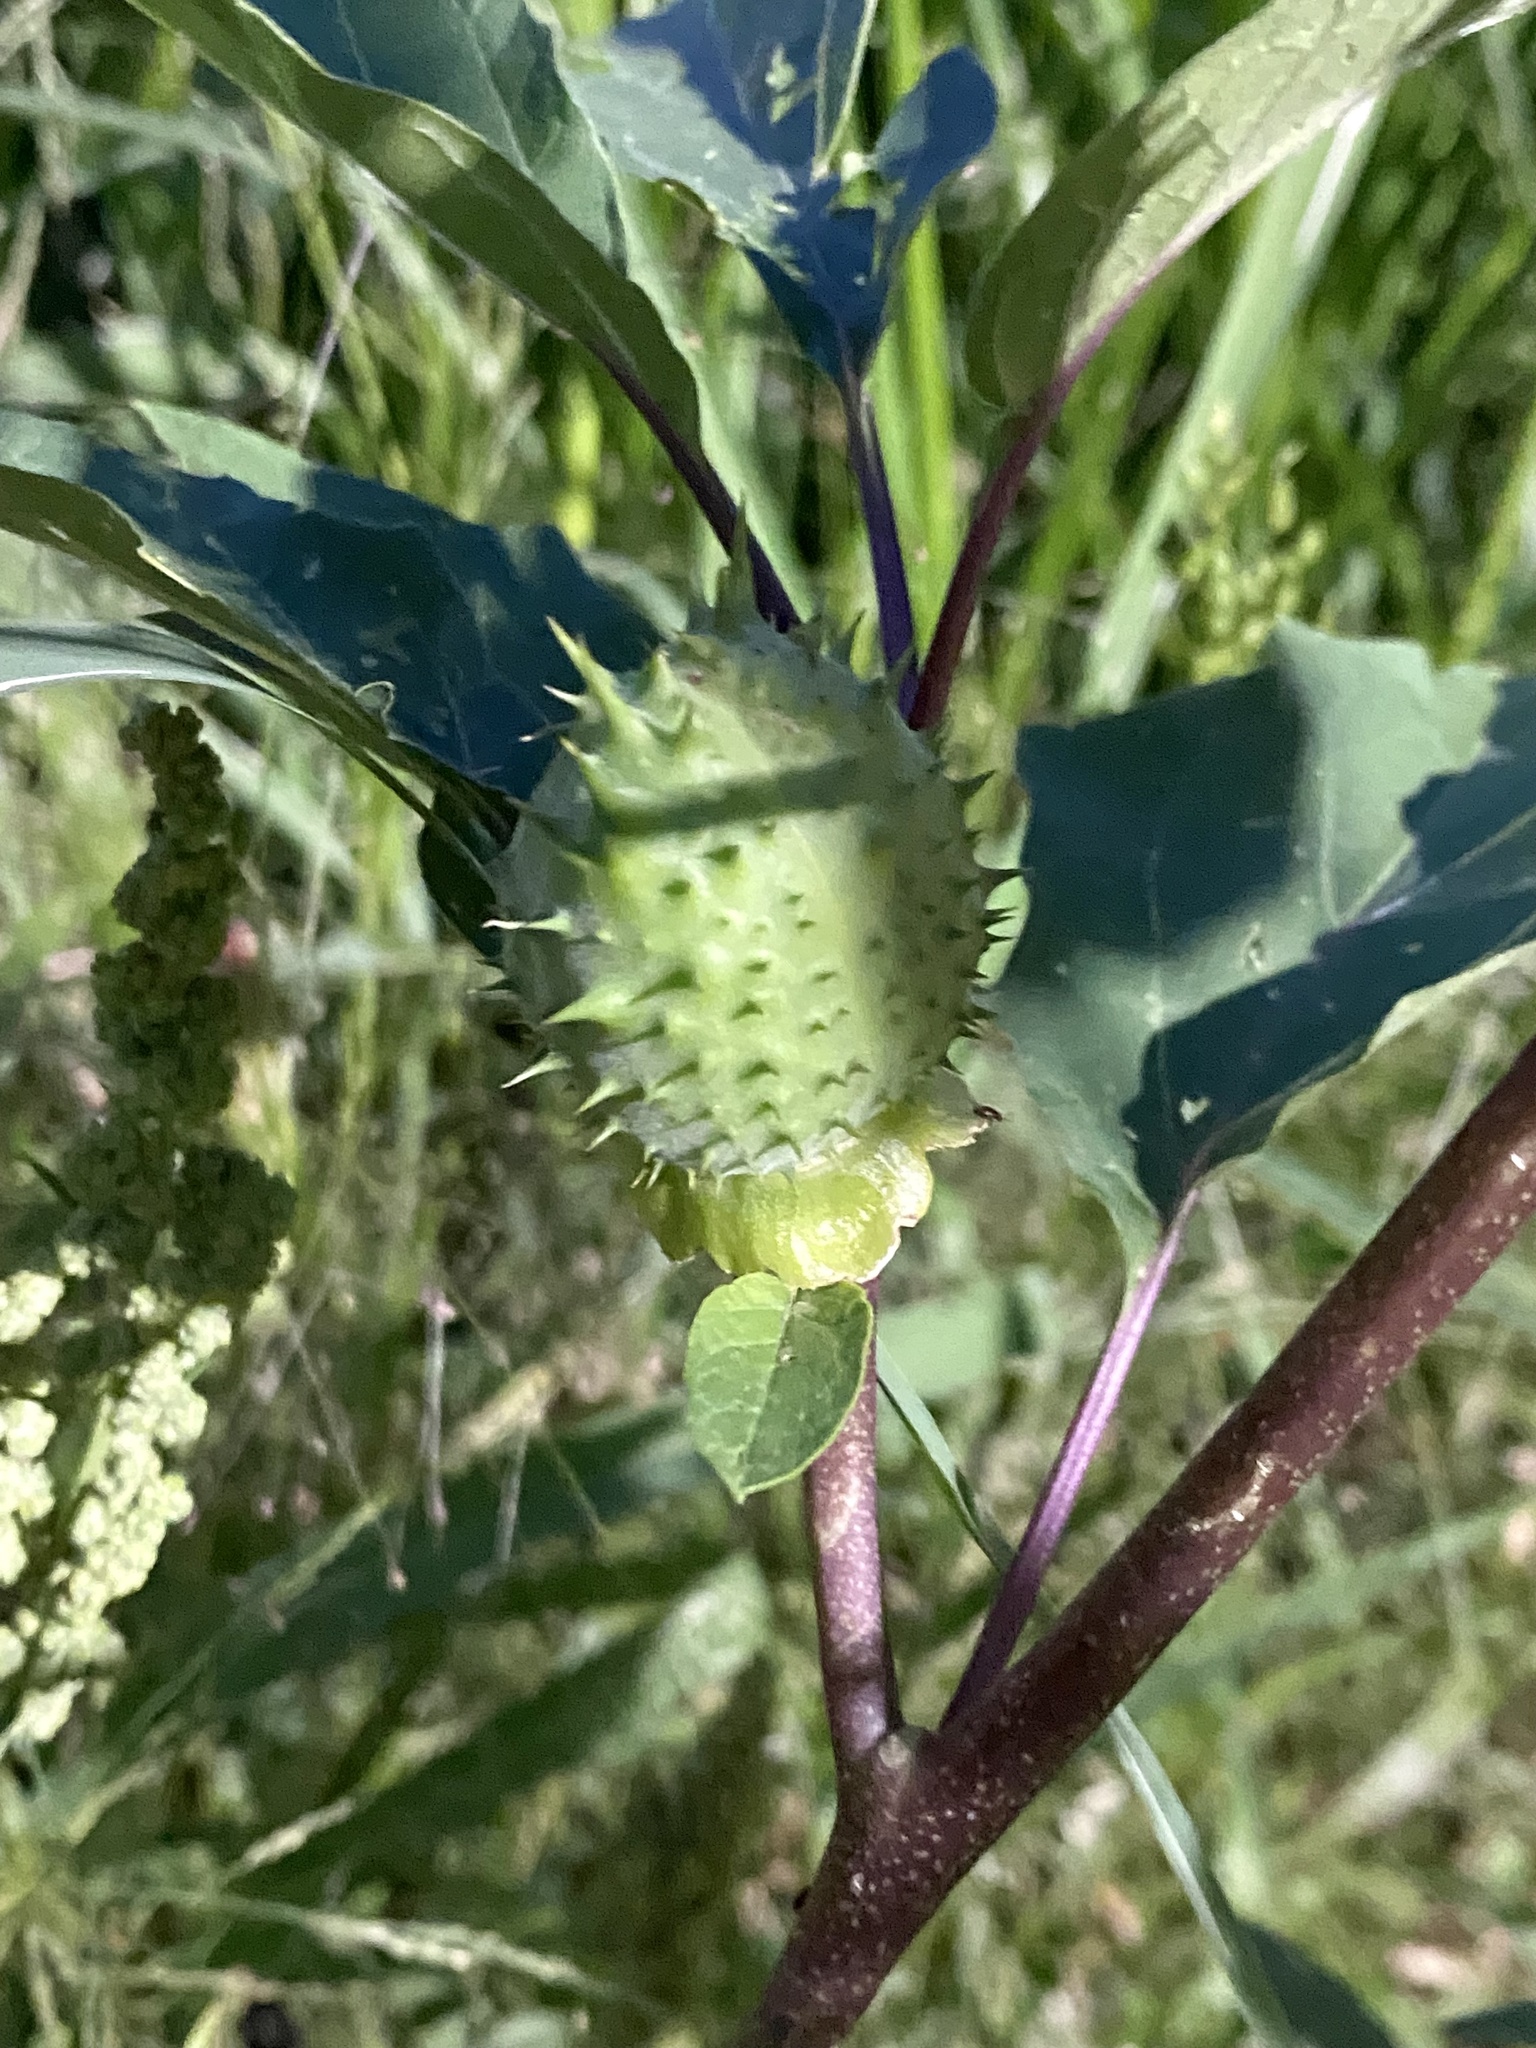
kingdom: Plantae
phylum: Tracheophyta
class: Magnoliopsida
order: Solanales
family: Solanaceae
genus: Datura
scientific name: Datura stramonium
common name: Thorn-apple
